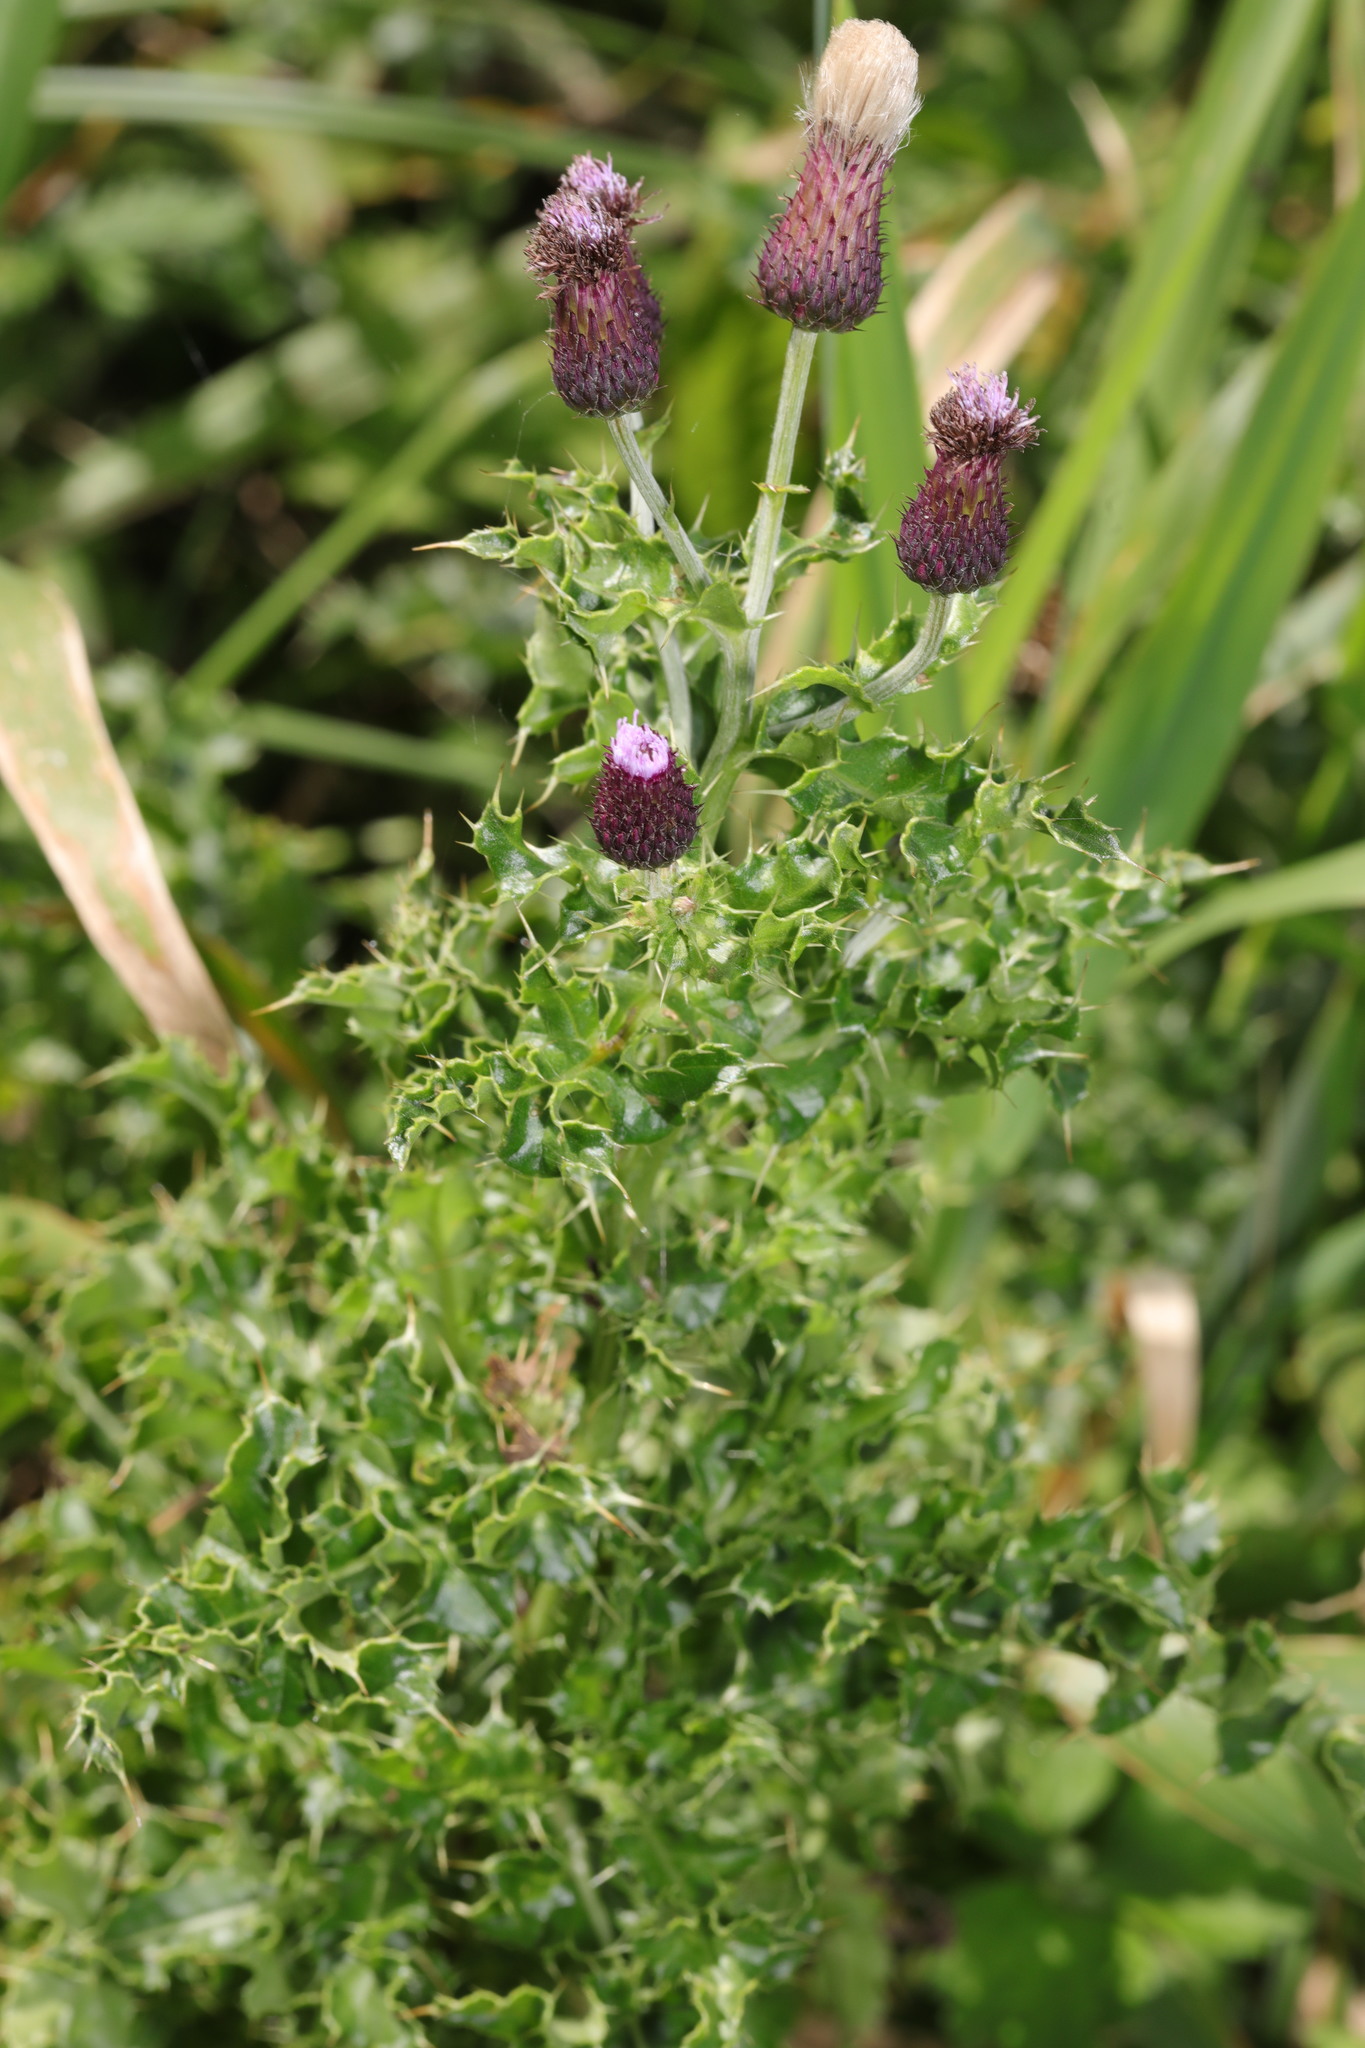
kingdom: Plantae
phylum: Tracheophyta
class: Magnoliopsida
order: Asterales
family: Asteraceae
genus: Cirsium
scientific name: Cirsium arvense
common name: Creeping thistle
